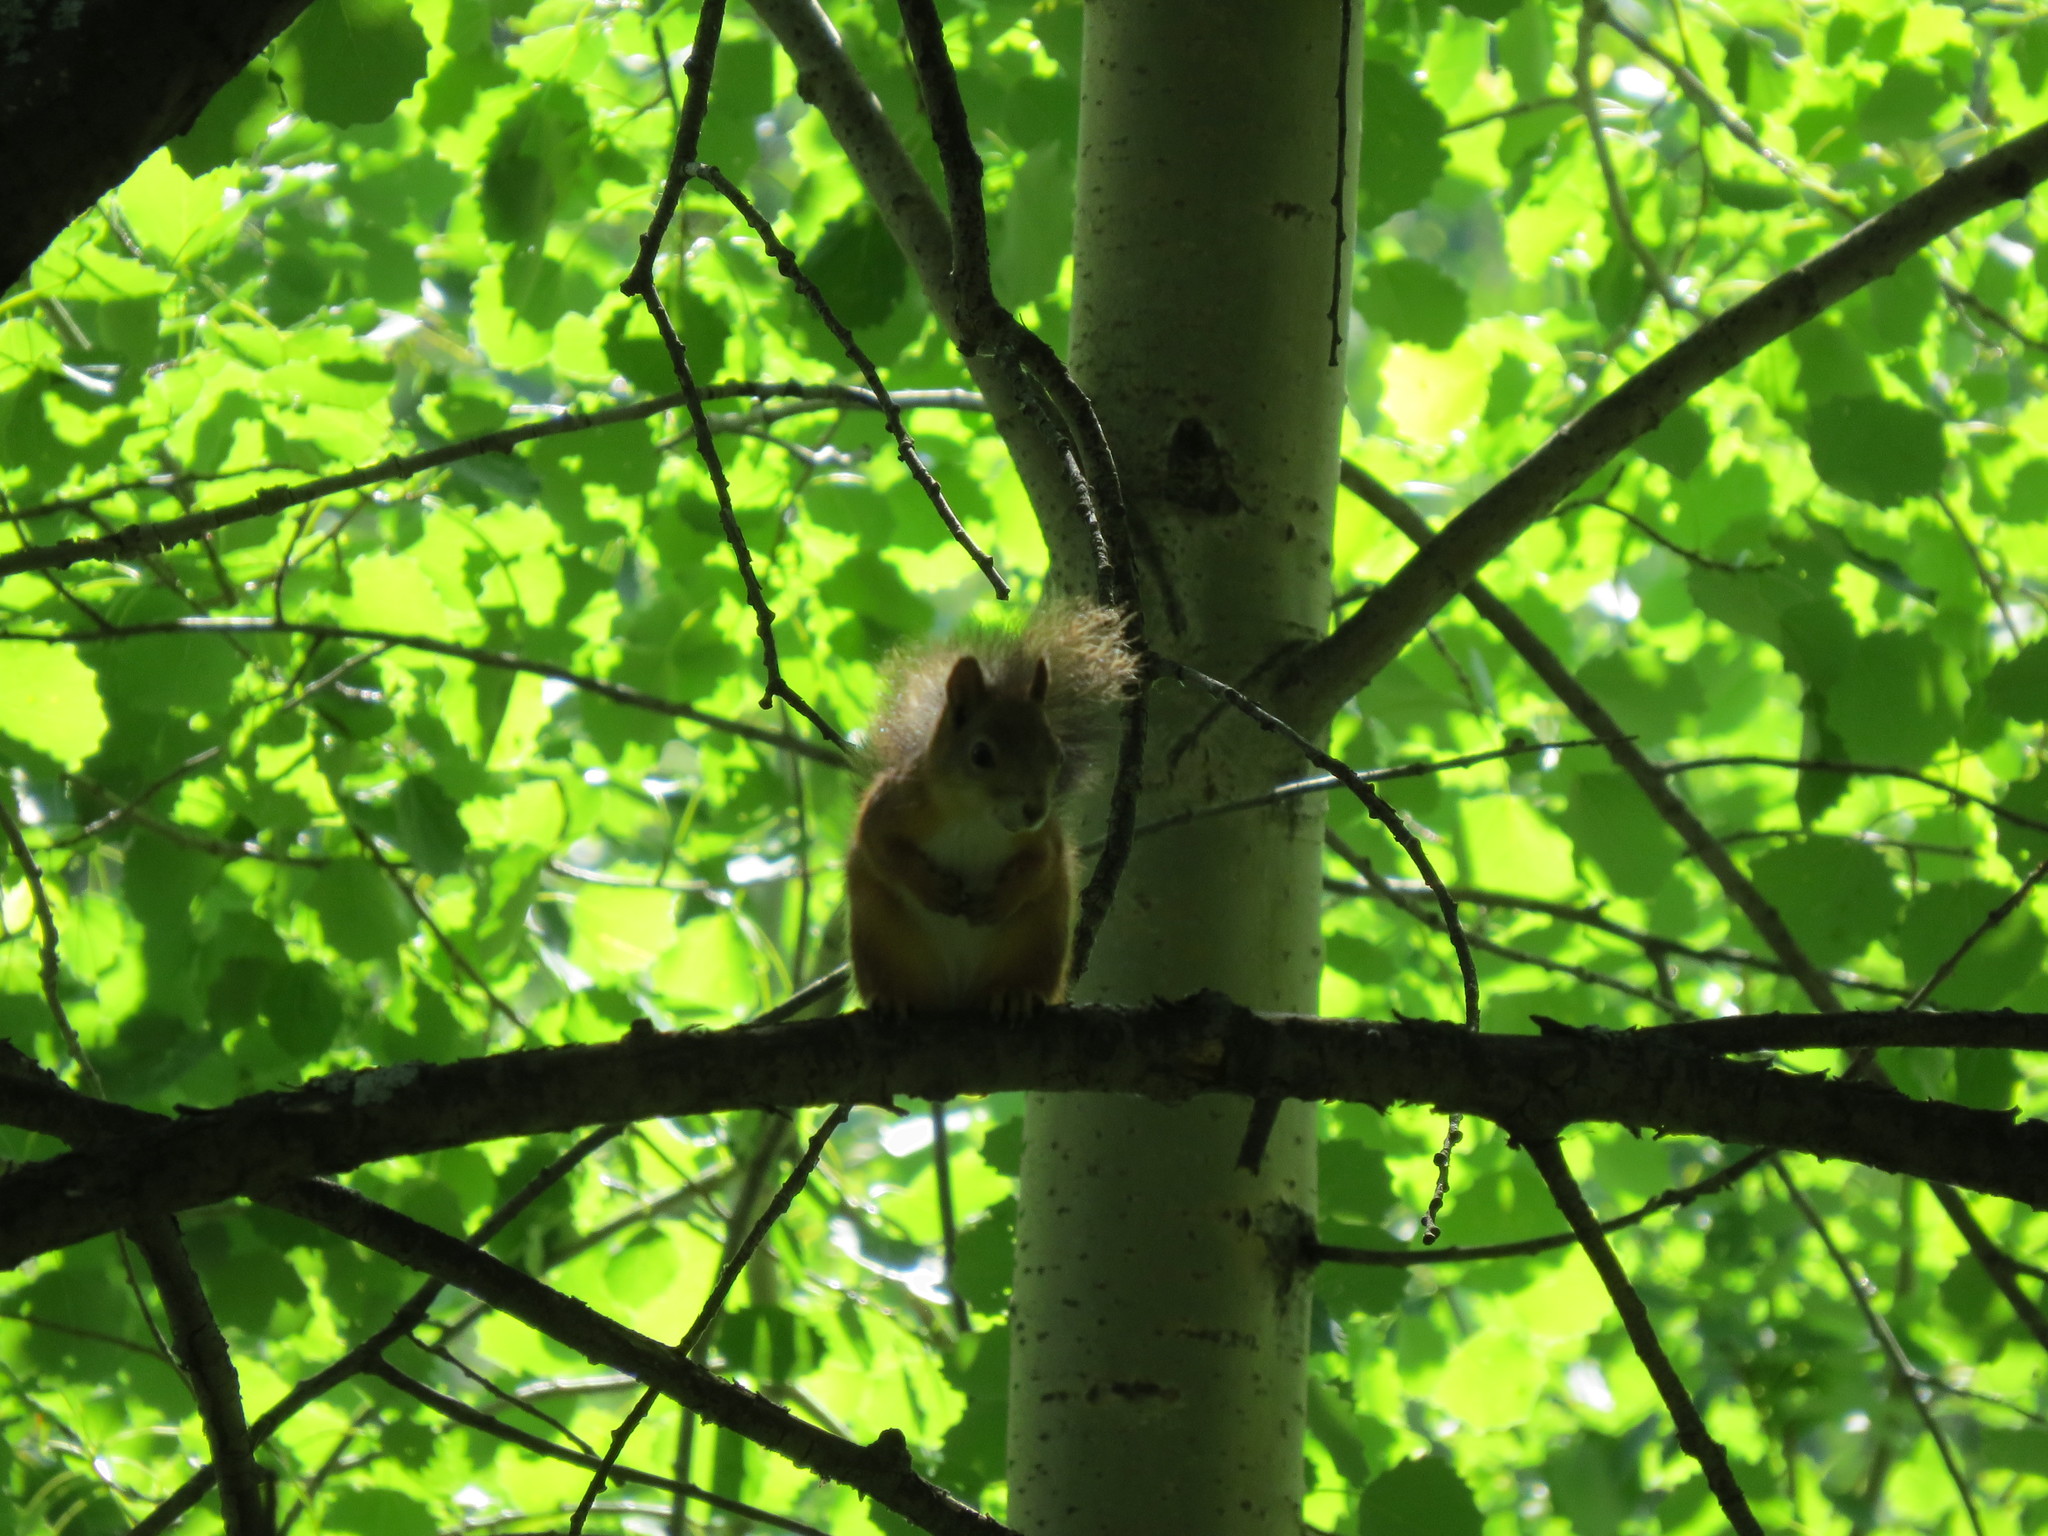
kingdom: Animalia
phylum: Chordata
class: Mammalia
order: Rodentia
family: Sciuridae
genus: Sciurus
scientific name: Sciurus vulgaris
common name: Eurasian red squirrel
